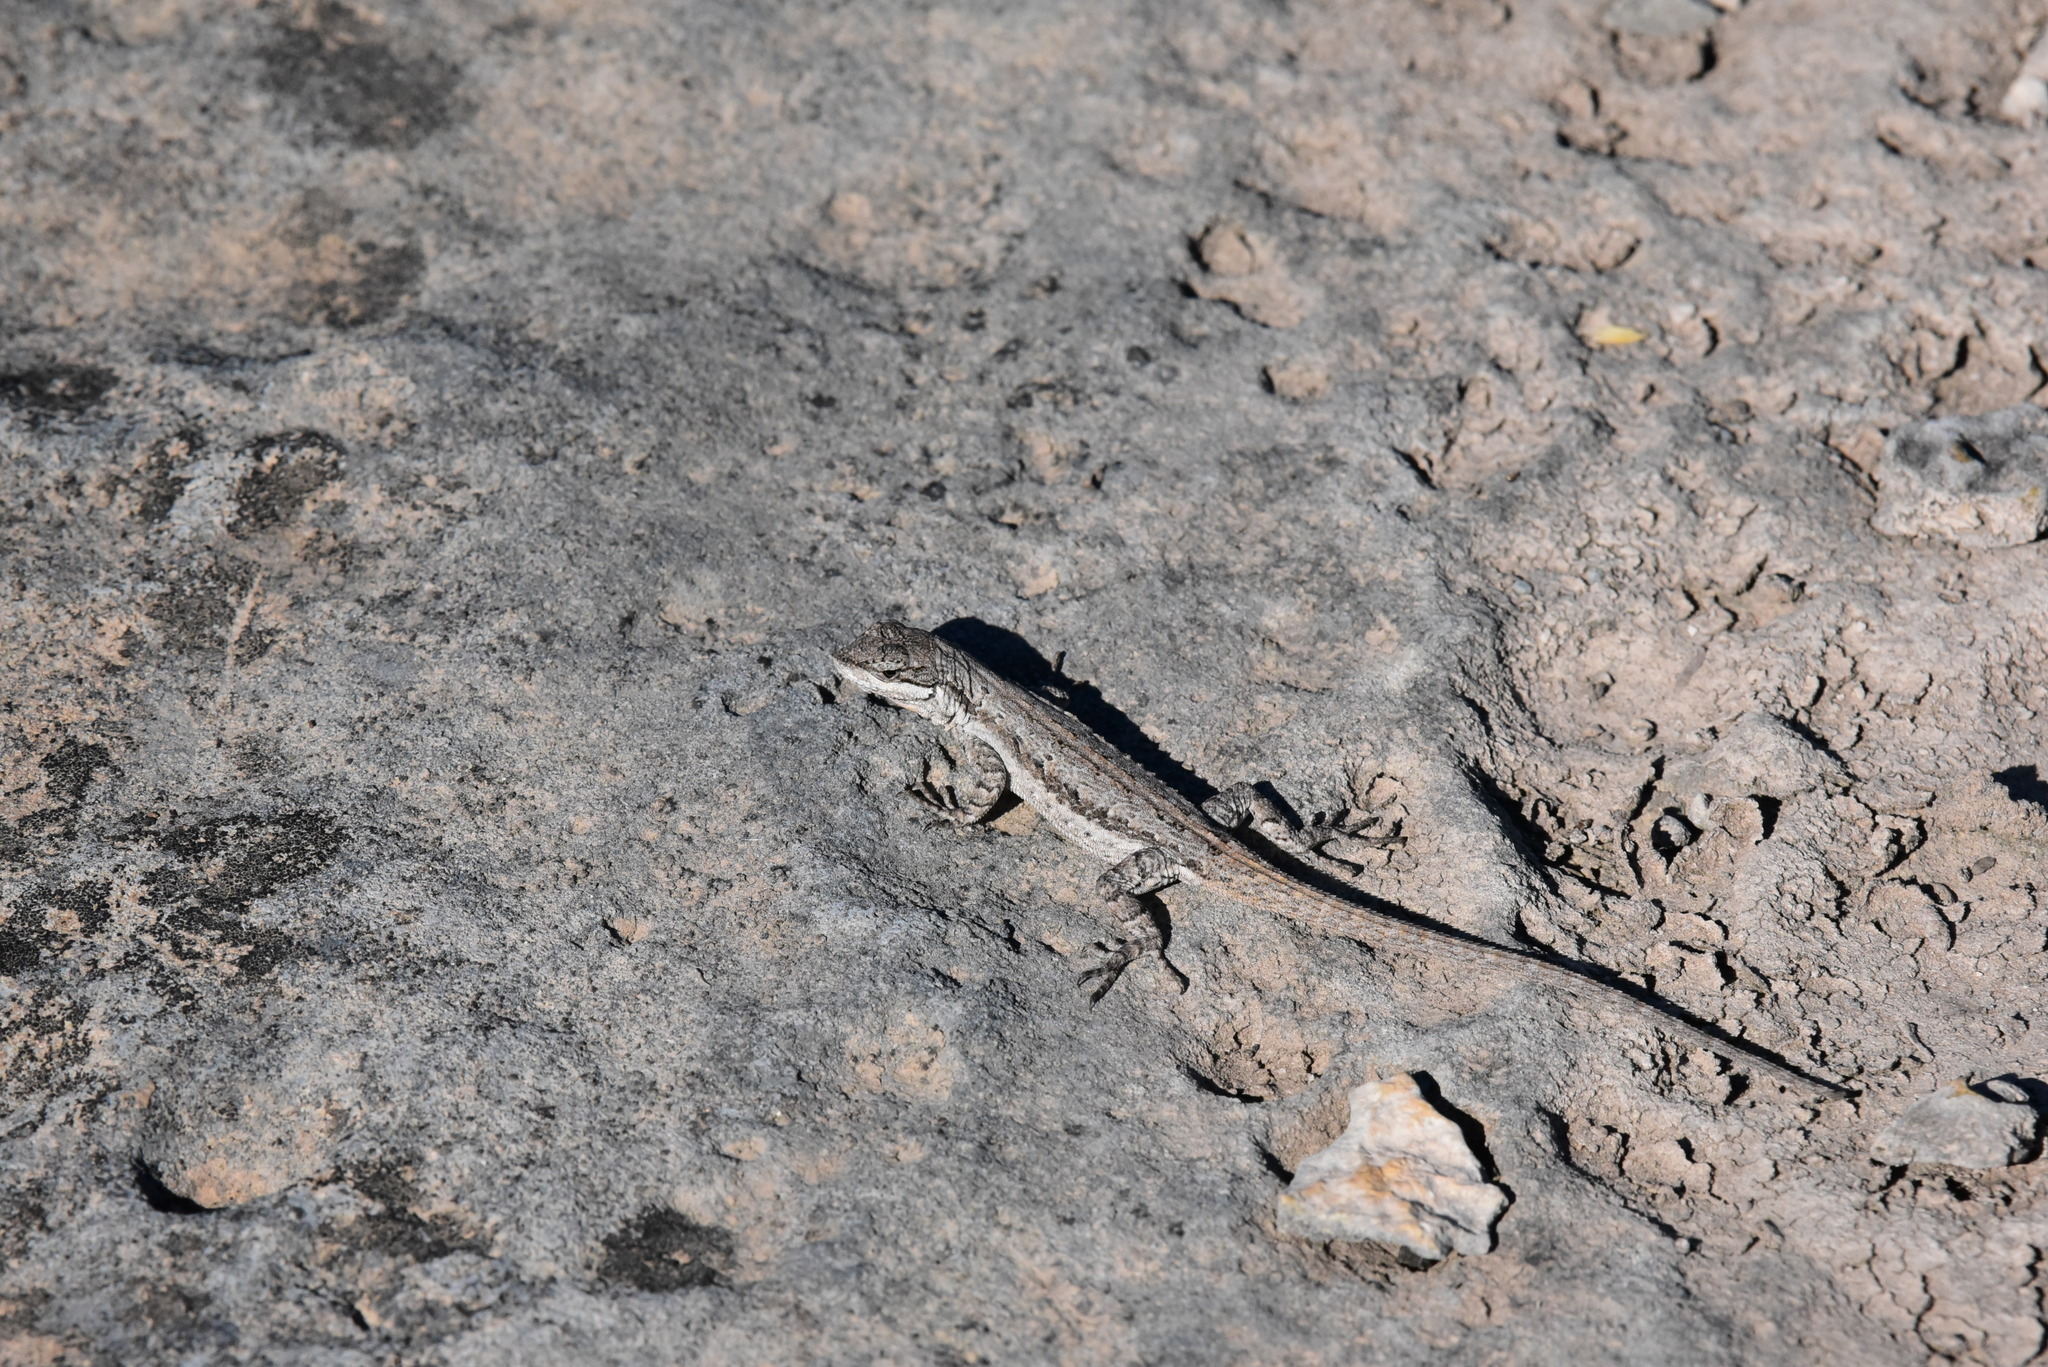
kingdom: Animalia
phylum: Chordata
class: Squamata
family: Phrynosomatidae
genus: Urosaurus
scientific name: Urosaurus ornatus
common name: Ornate tree lizard
